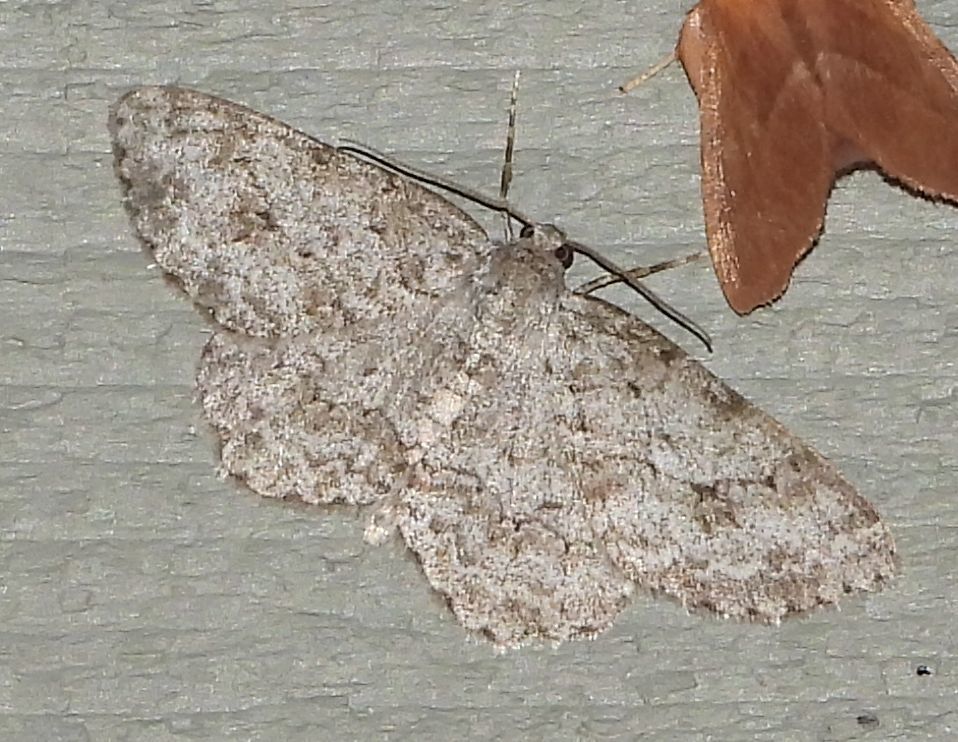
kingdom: Animalia
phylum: Arthropoda
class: Insecta
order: Lepidoptera
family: Geometridae
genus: Ectropis
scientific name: Ectropis crepuscularia
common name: Engrailed
